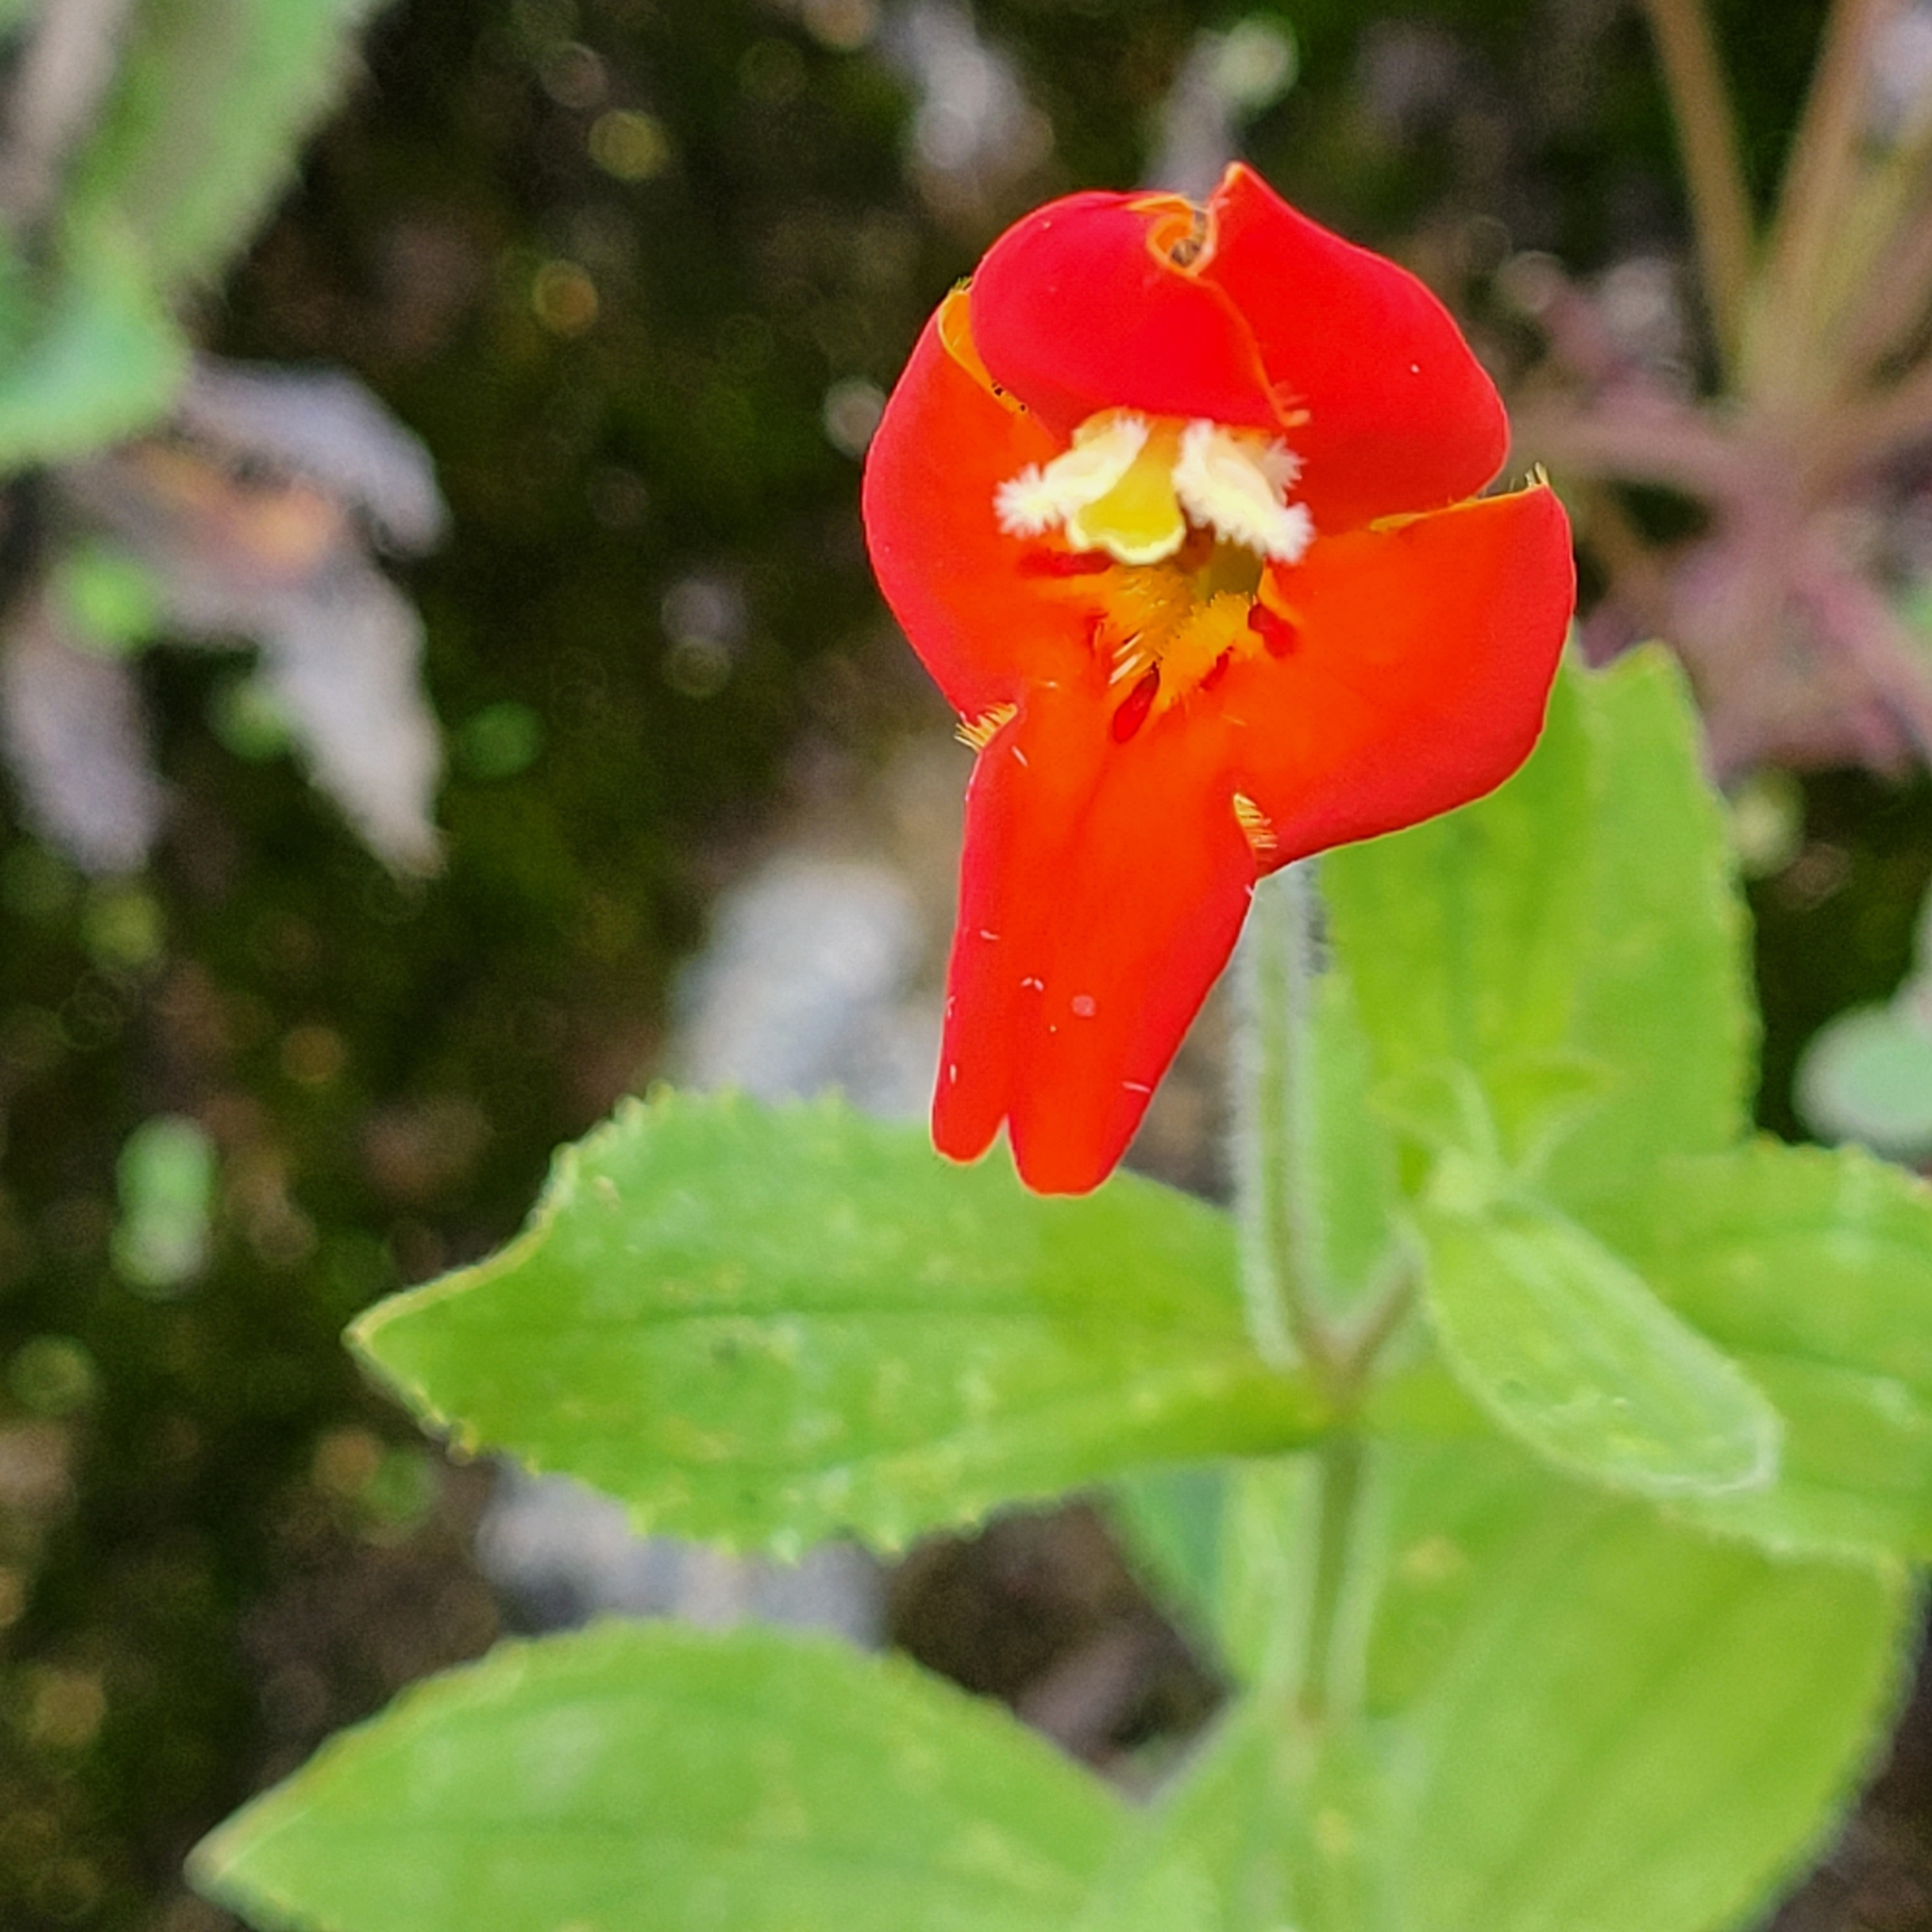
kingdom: Plantae
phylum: Tracheophyta
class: Magnoliopsida
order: Lamiales
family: Phrymaceae
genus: Erythranthe
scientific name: Erythranthe cardinalis
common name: Scarlet monkey-flower
